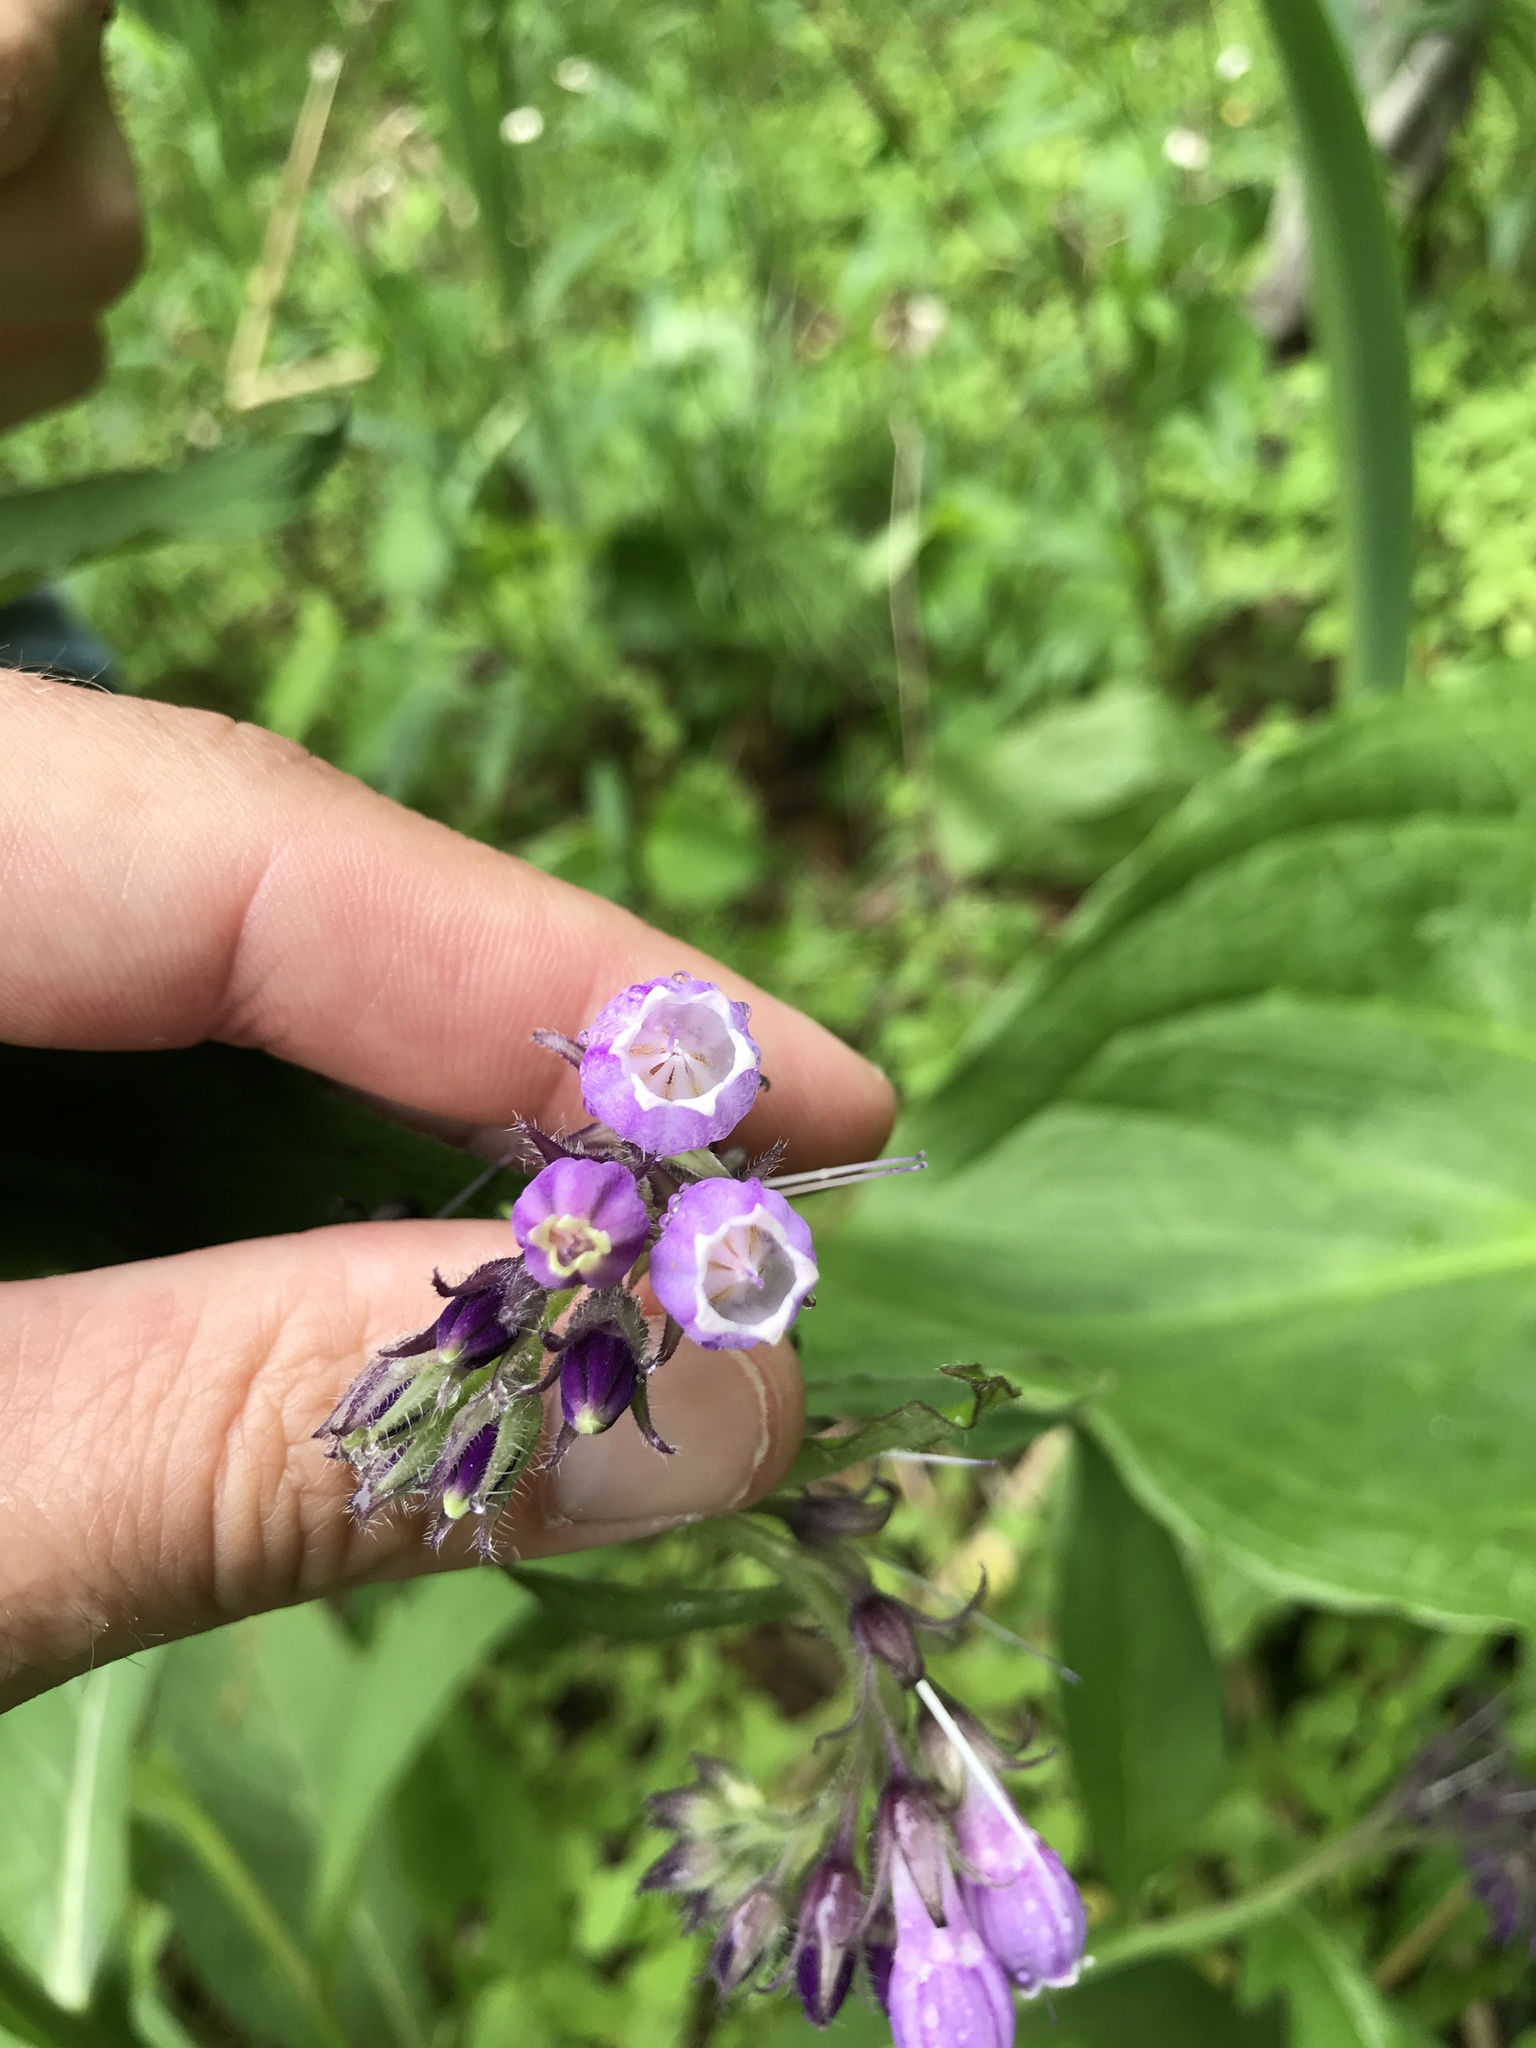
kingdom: Plantae
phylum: Tracheophyta
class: Magnoliopsida
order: Boraginales
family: Boraginaceae
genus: Symphytum
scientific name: Symphytum officinale
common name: Common comfrey
